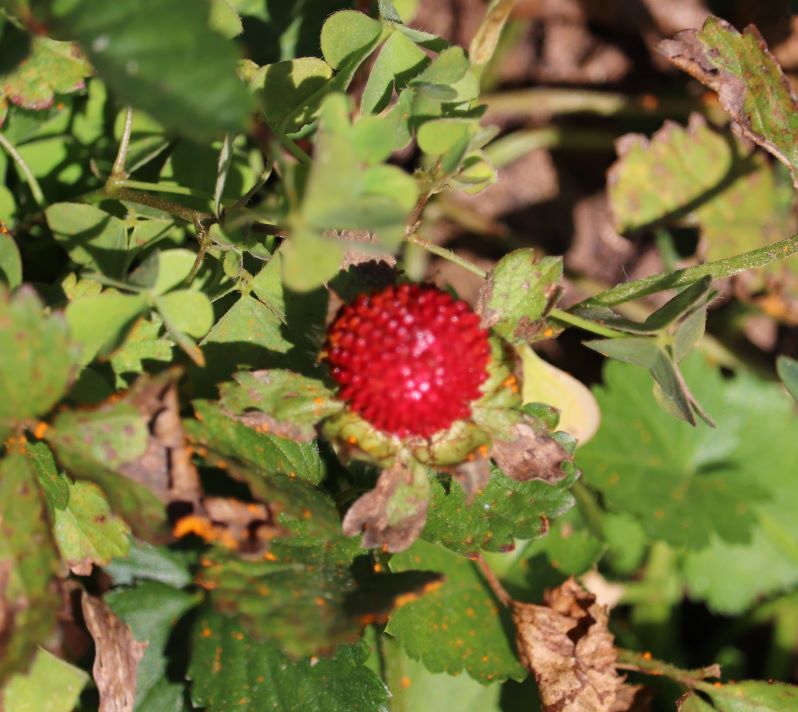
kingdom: Plantae
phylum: Tracheophyta
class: Magnoliopsida
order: Rosales
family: Rosaceae
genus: Potentilla
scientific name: Potentilla indica
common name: Yellow-flowered strawberry
